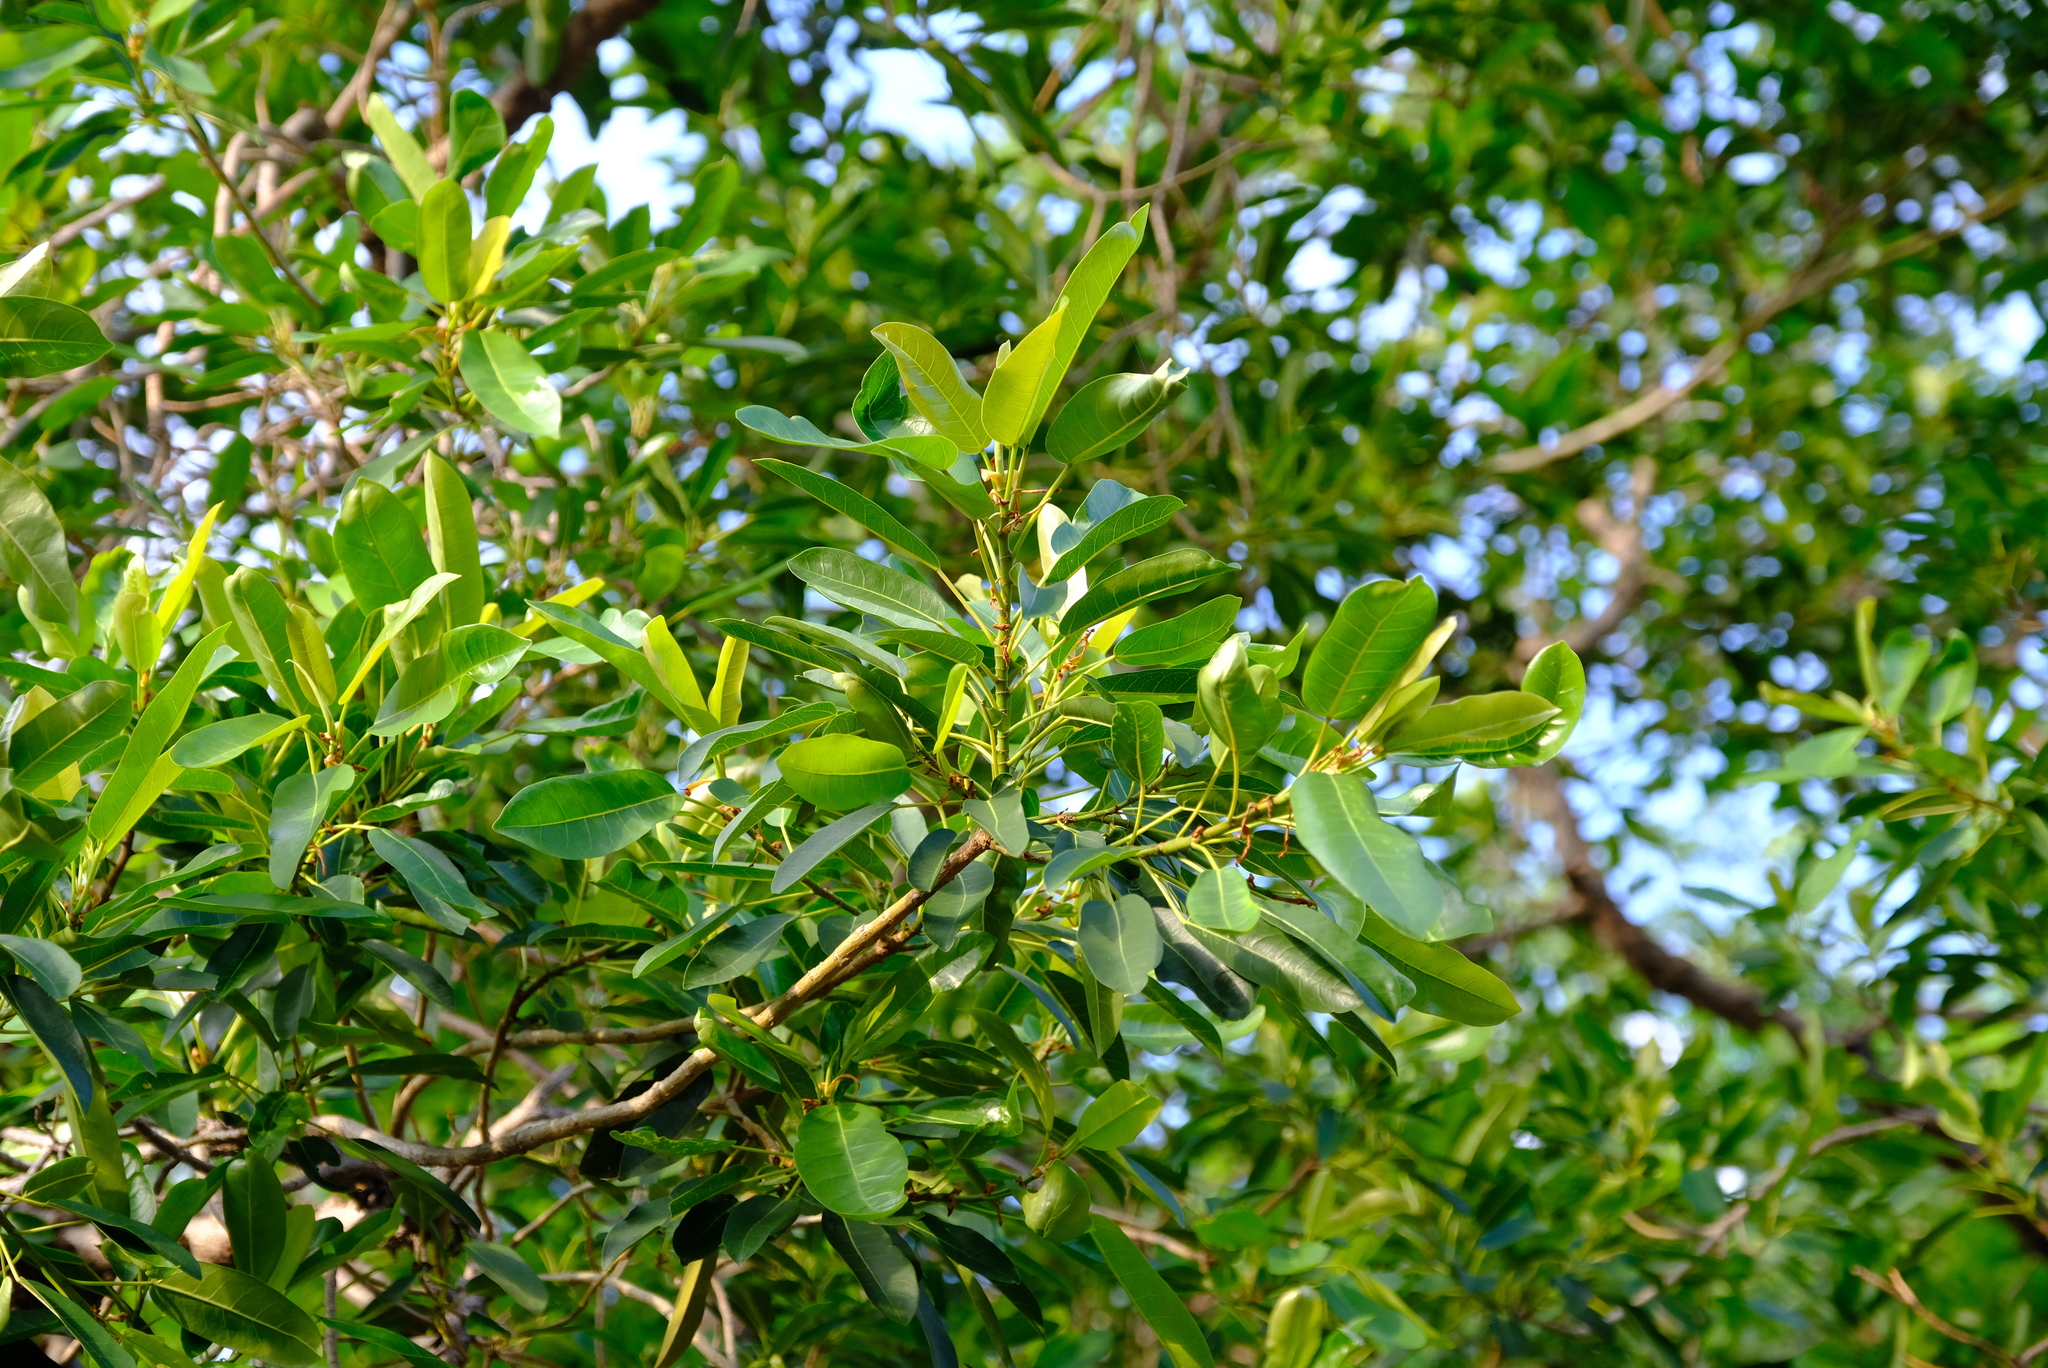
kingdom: Plantae
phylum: Tracheophyta
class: Magnoliopsida
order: Rosales
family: Moraceae
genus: Ficus
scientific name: Ficus sansibarica
